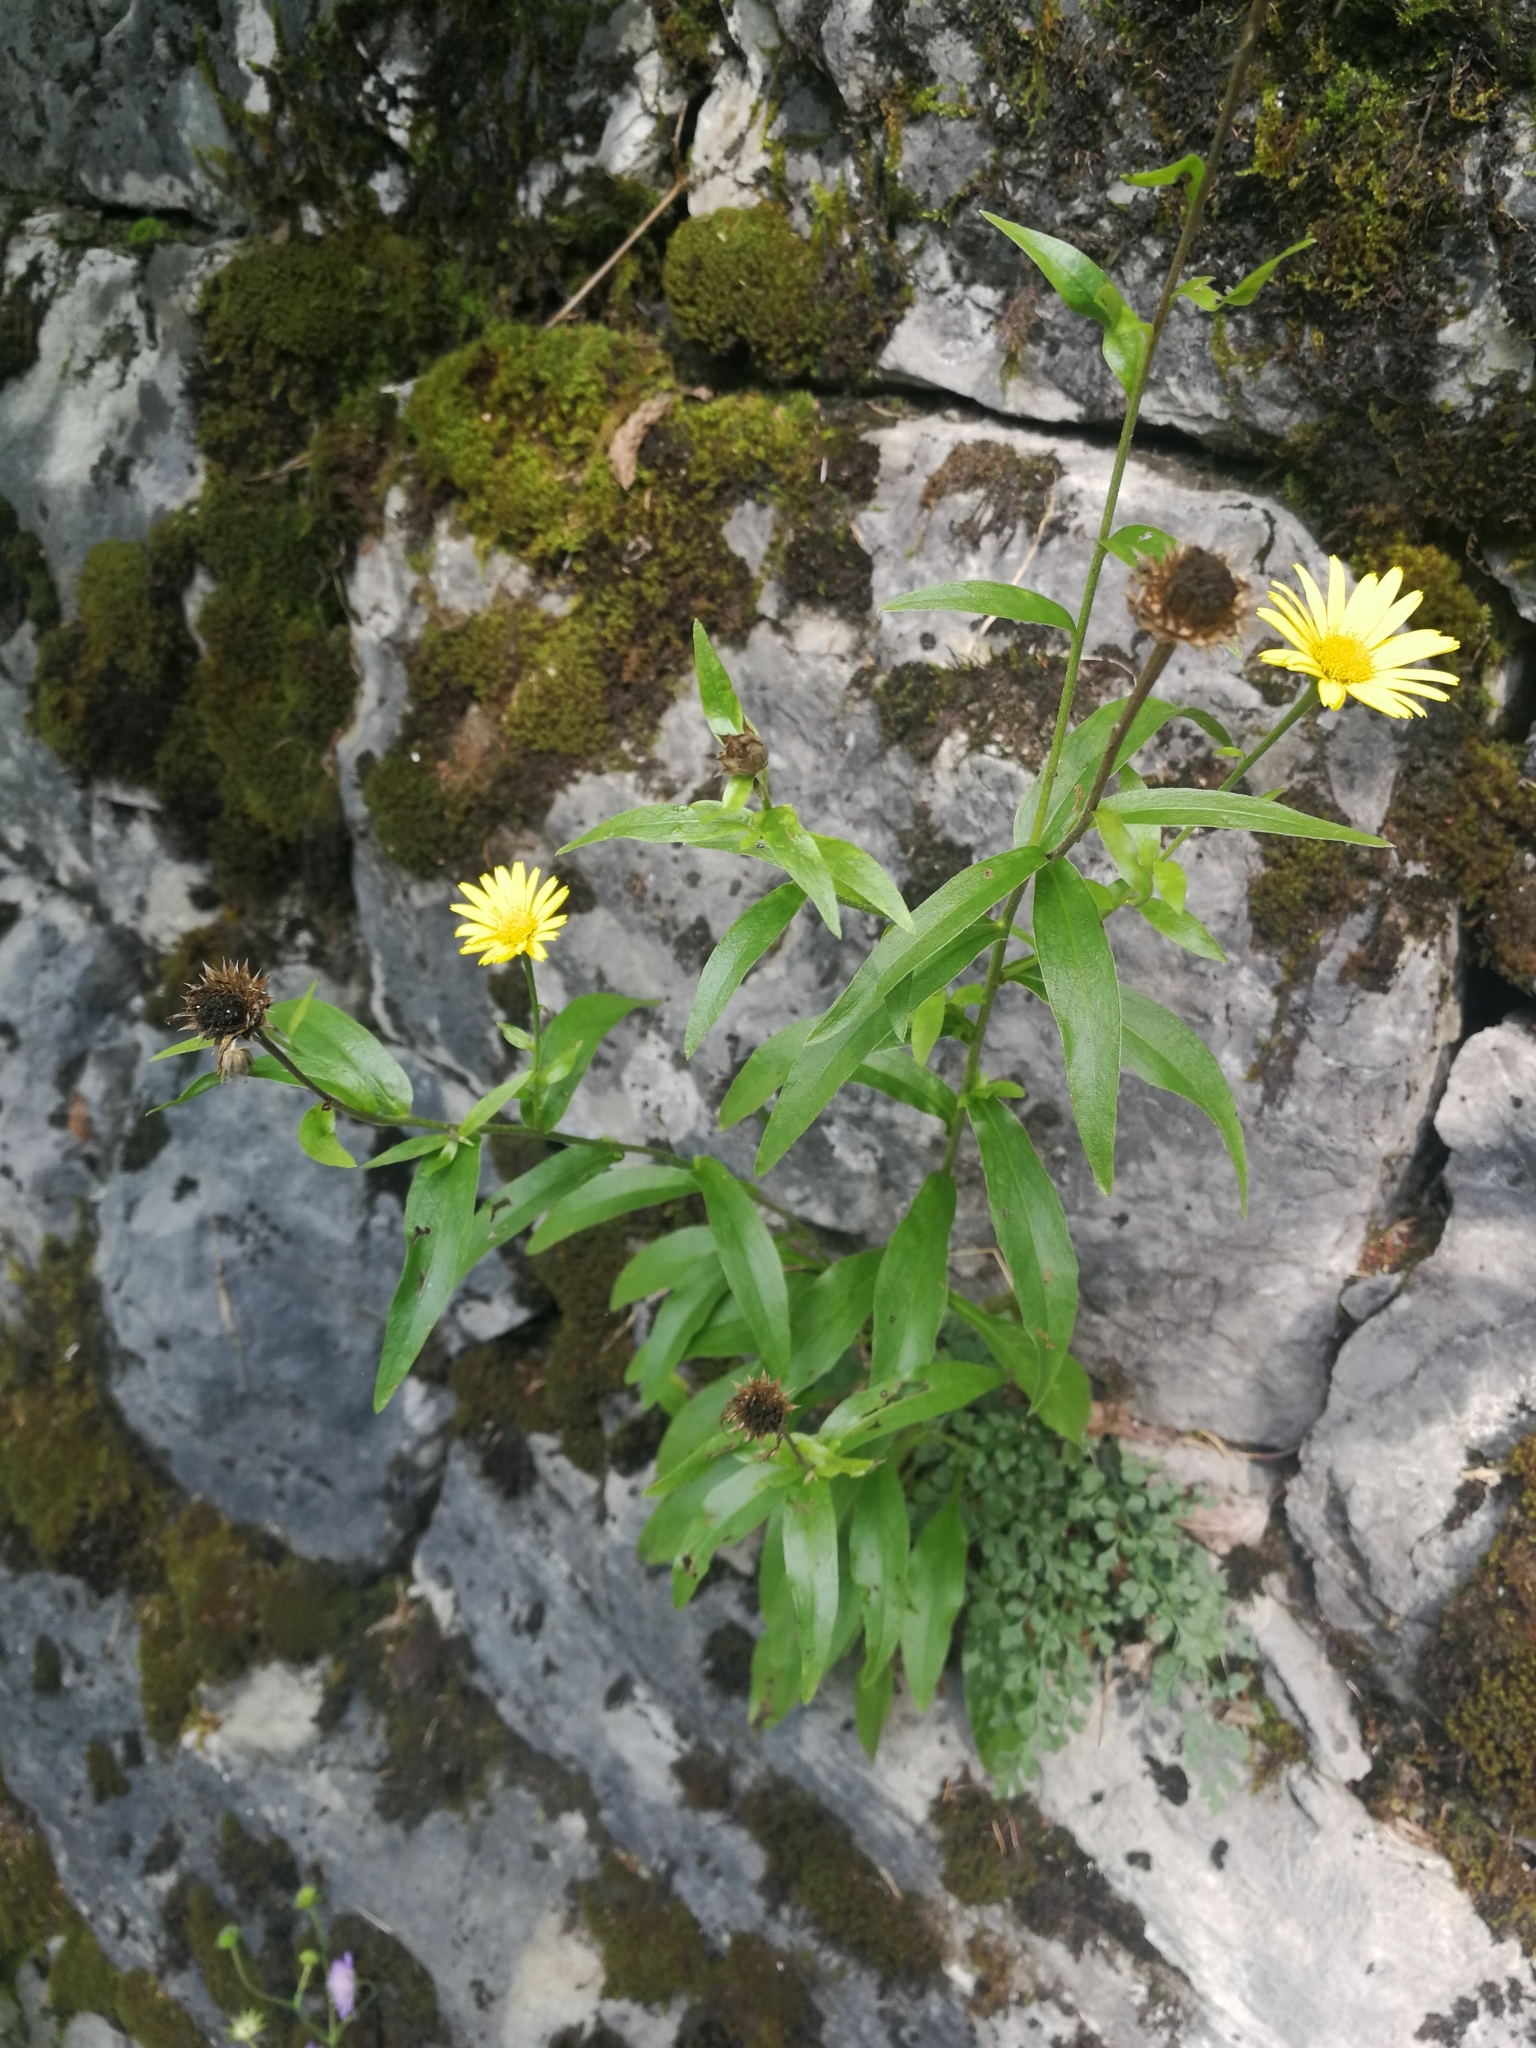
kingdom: Plantae
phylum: Tracheophyta
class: Magnoliopsida
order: Asterales
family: Asteraceae
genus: Buphthalmum
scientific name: Buphthalmum salicifolium
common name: Willow-leaved yellow-oxeye
